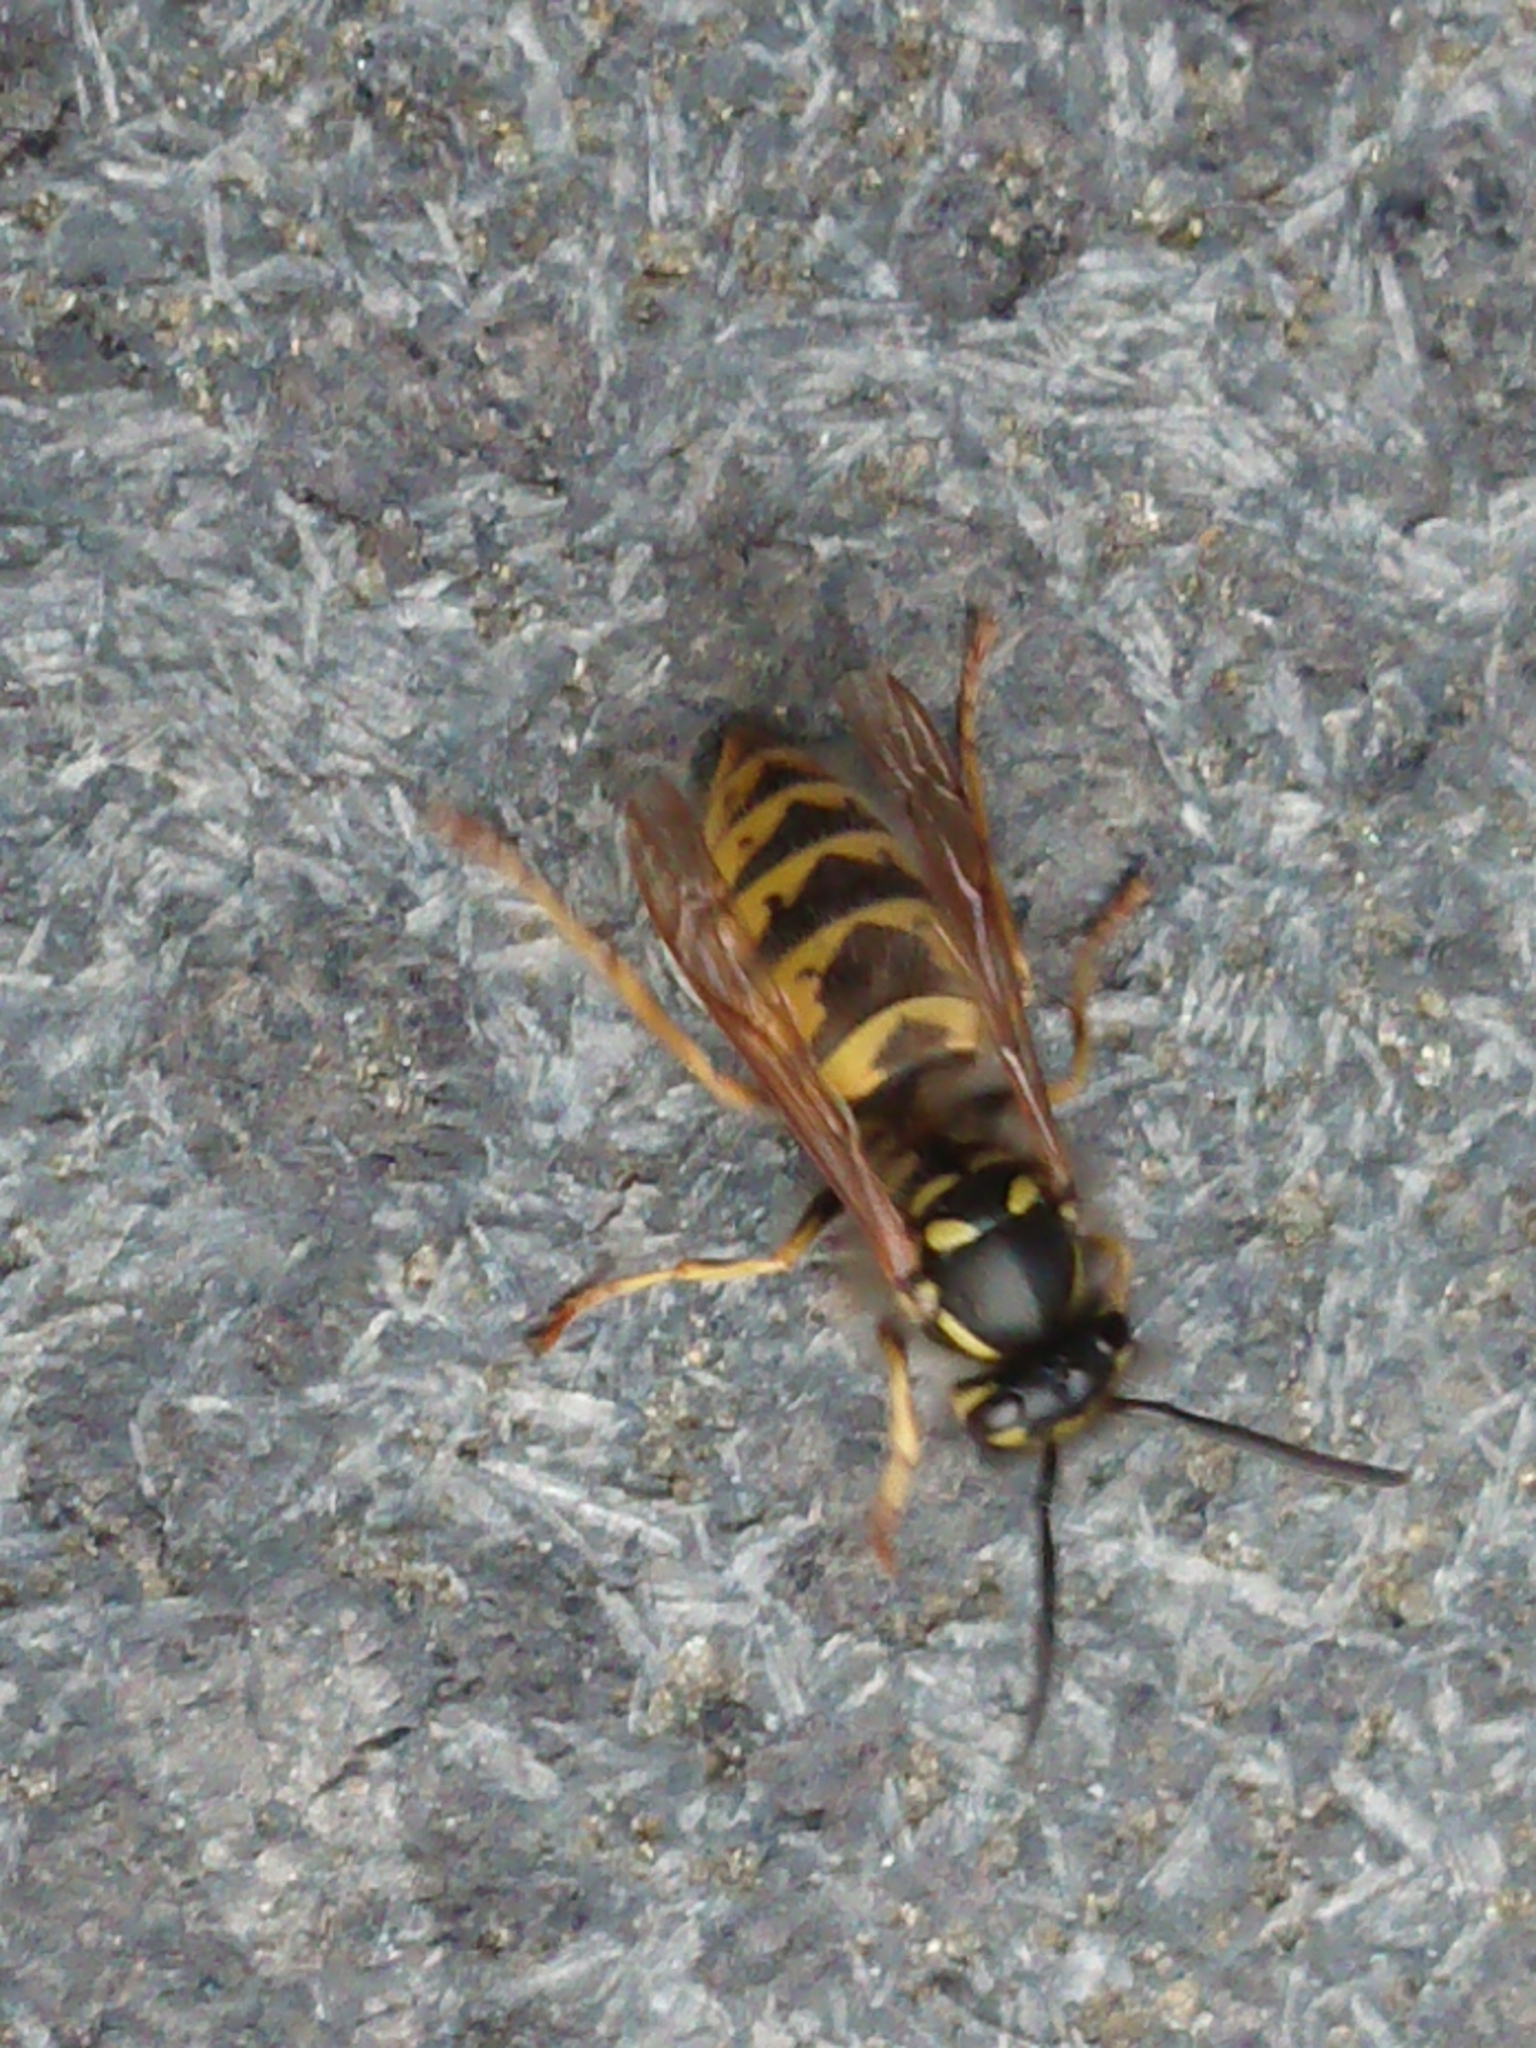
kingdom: Animalia
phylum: Arthropoda
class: Insecta
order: Hymenoptera
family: Vespidae
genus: Vespula
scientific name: Vespula vulgaris
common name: Common wasp
